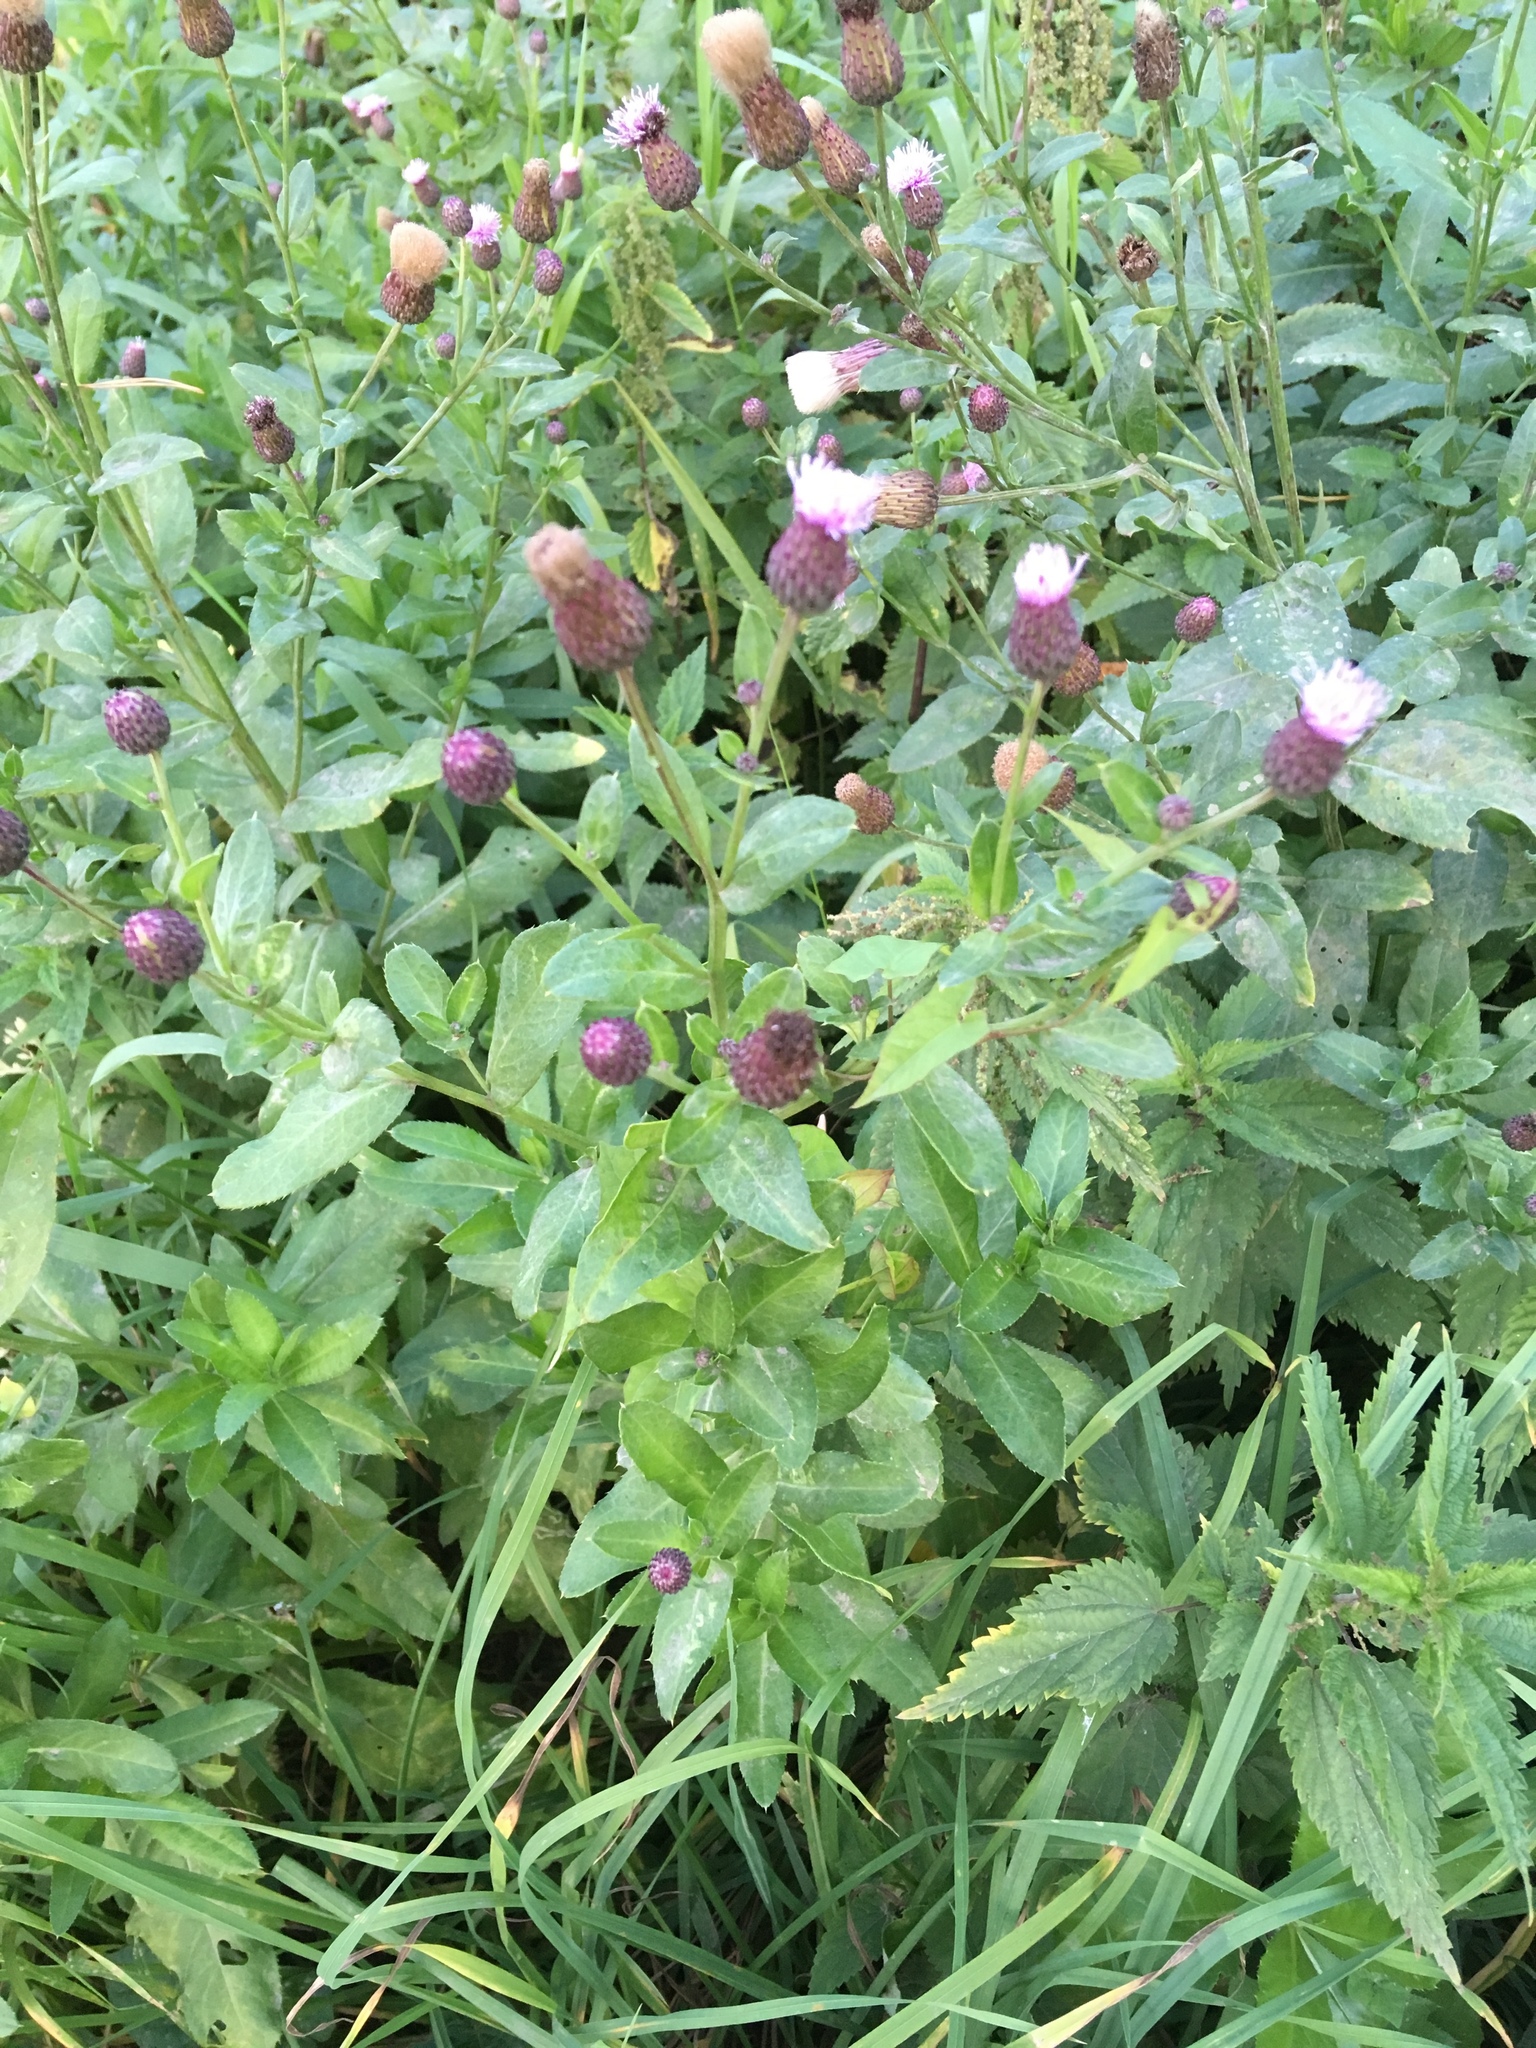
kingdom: Plantae
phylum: Tracheophyta
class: Magnoliopsida
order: Asterales
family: Asteraceae
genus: Cirsium
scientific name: Cirsium arvense
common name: Creeping thistle
